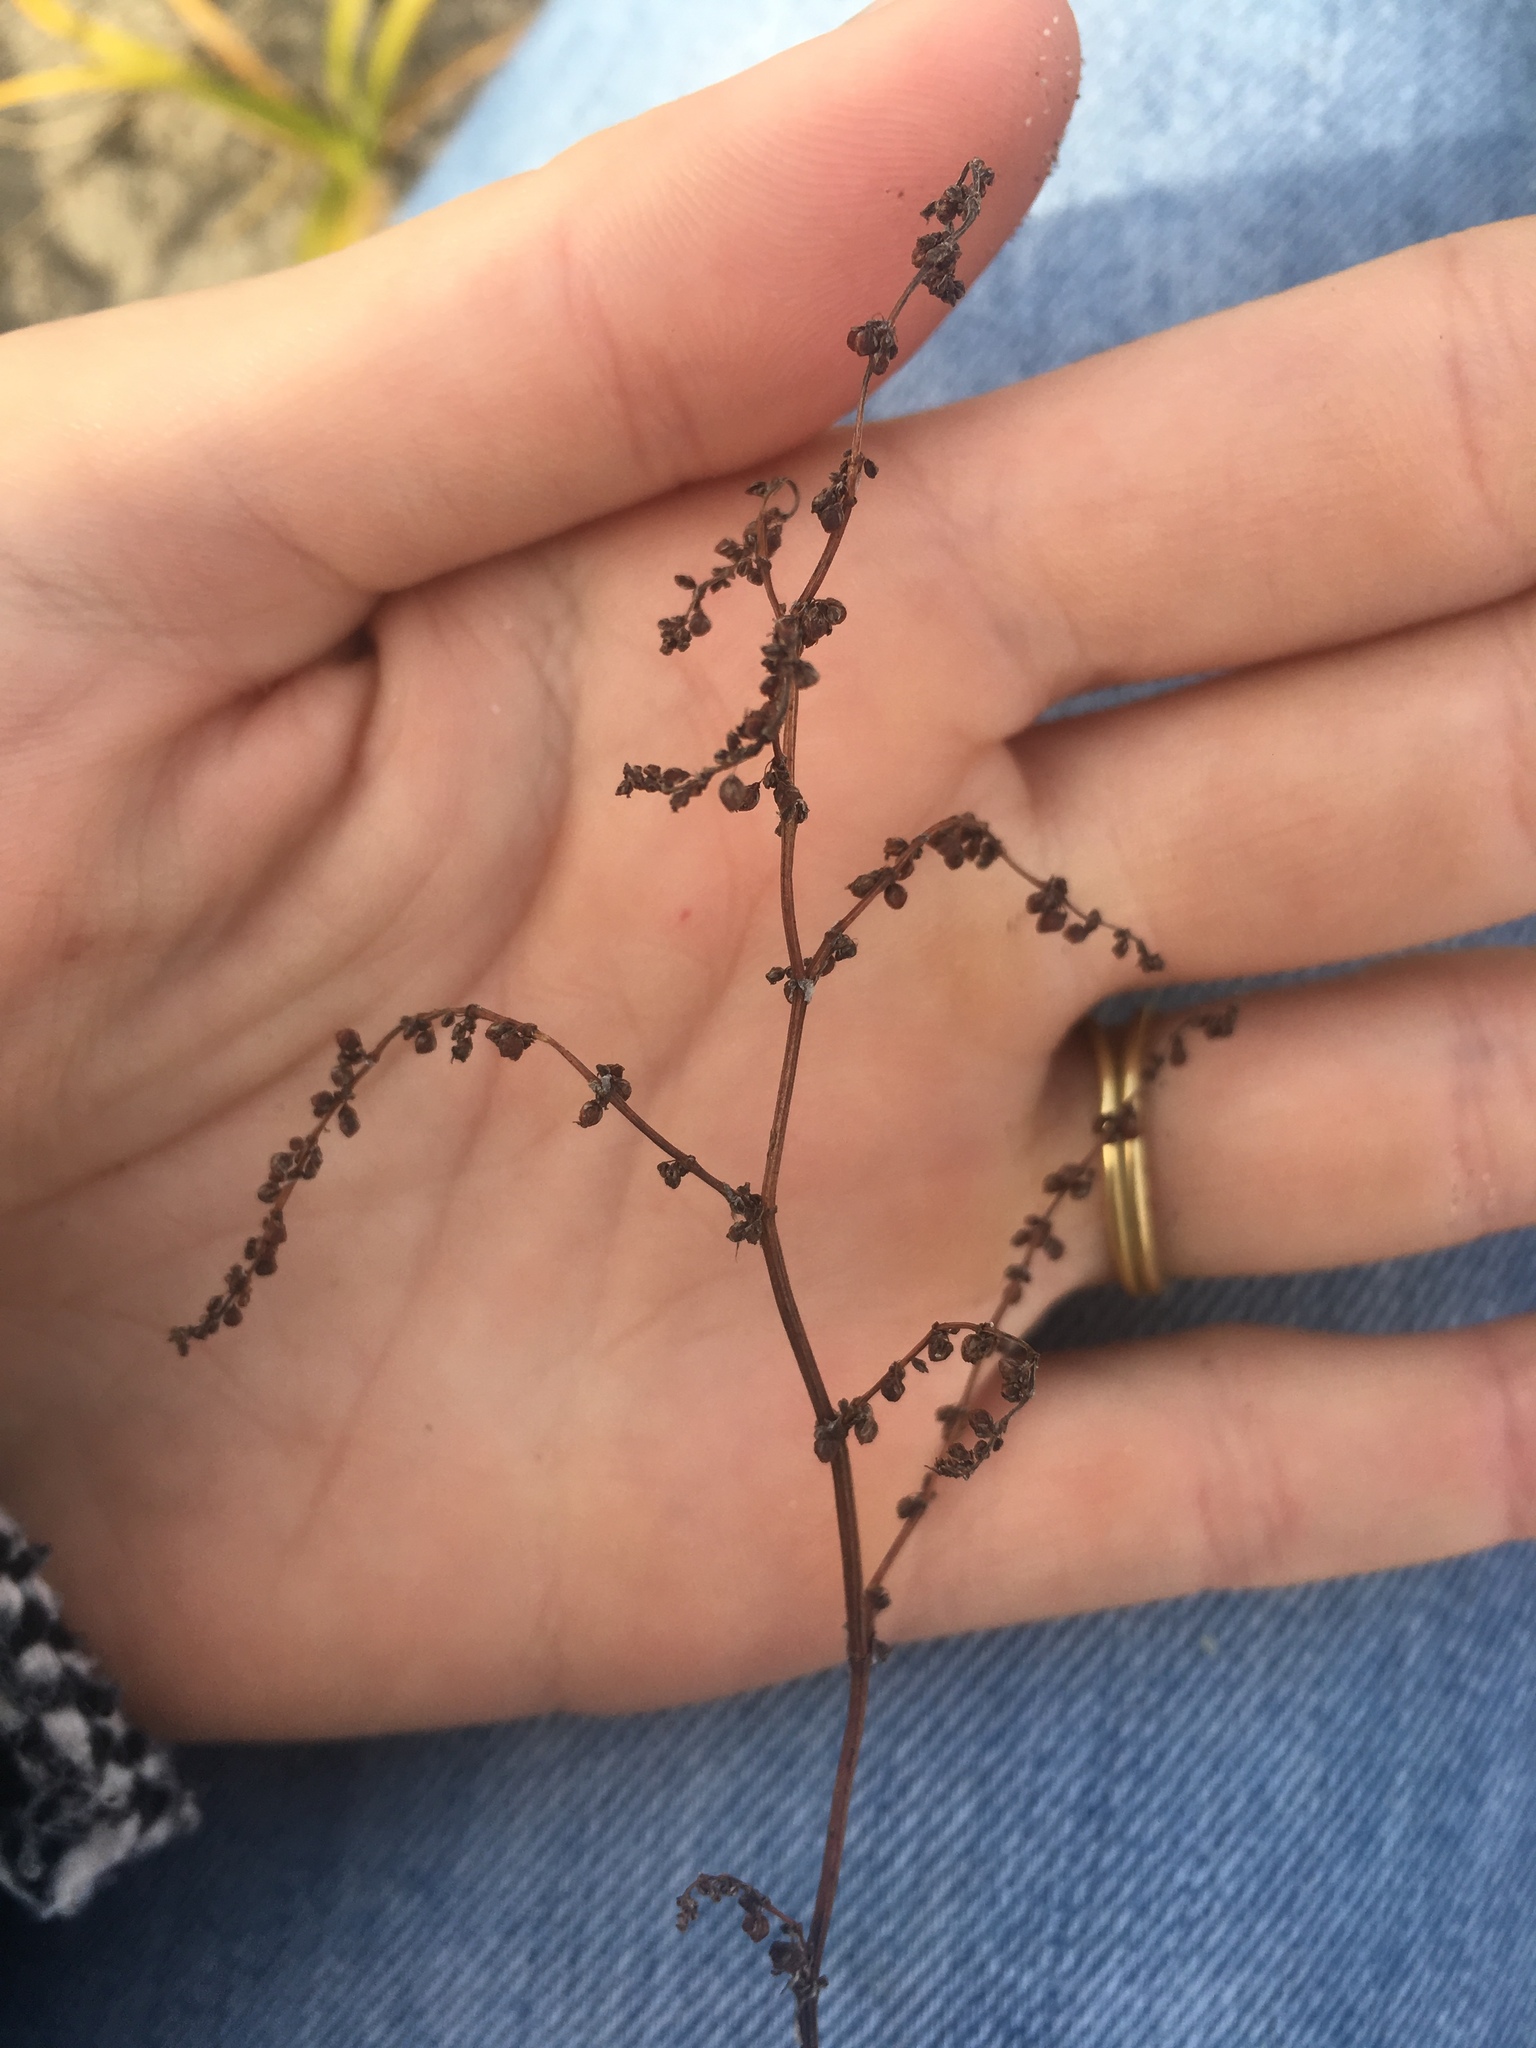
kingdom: Plantae
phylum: Tracheophyta
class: Magnoliopsida
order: Caryophyllales
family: Polygonaceae
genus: Rumex
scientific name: Rumex acetosella
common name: Common sheep sorrel
